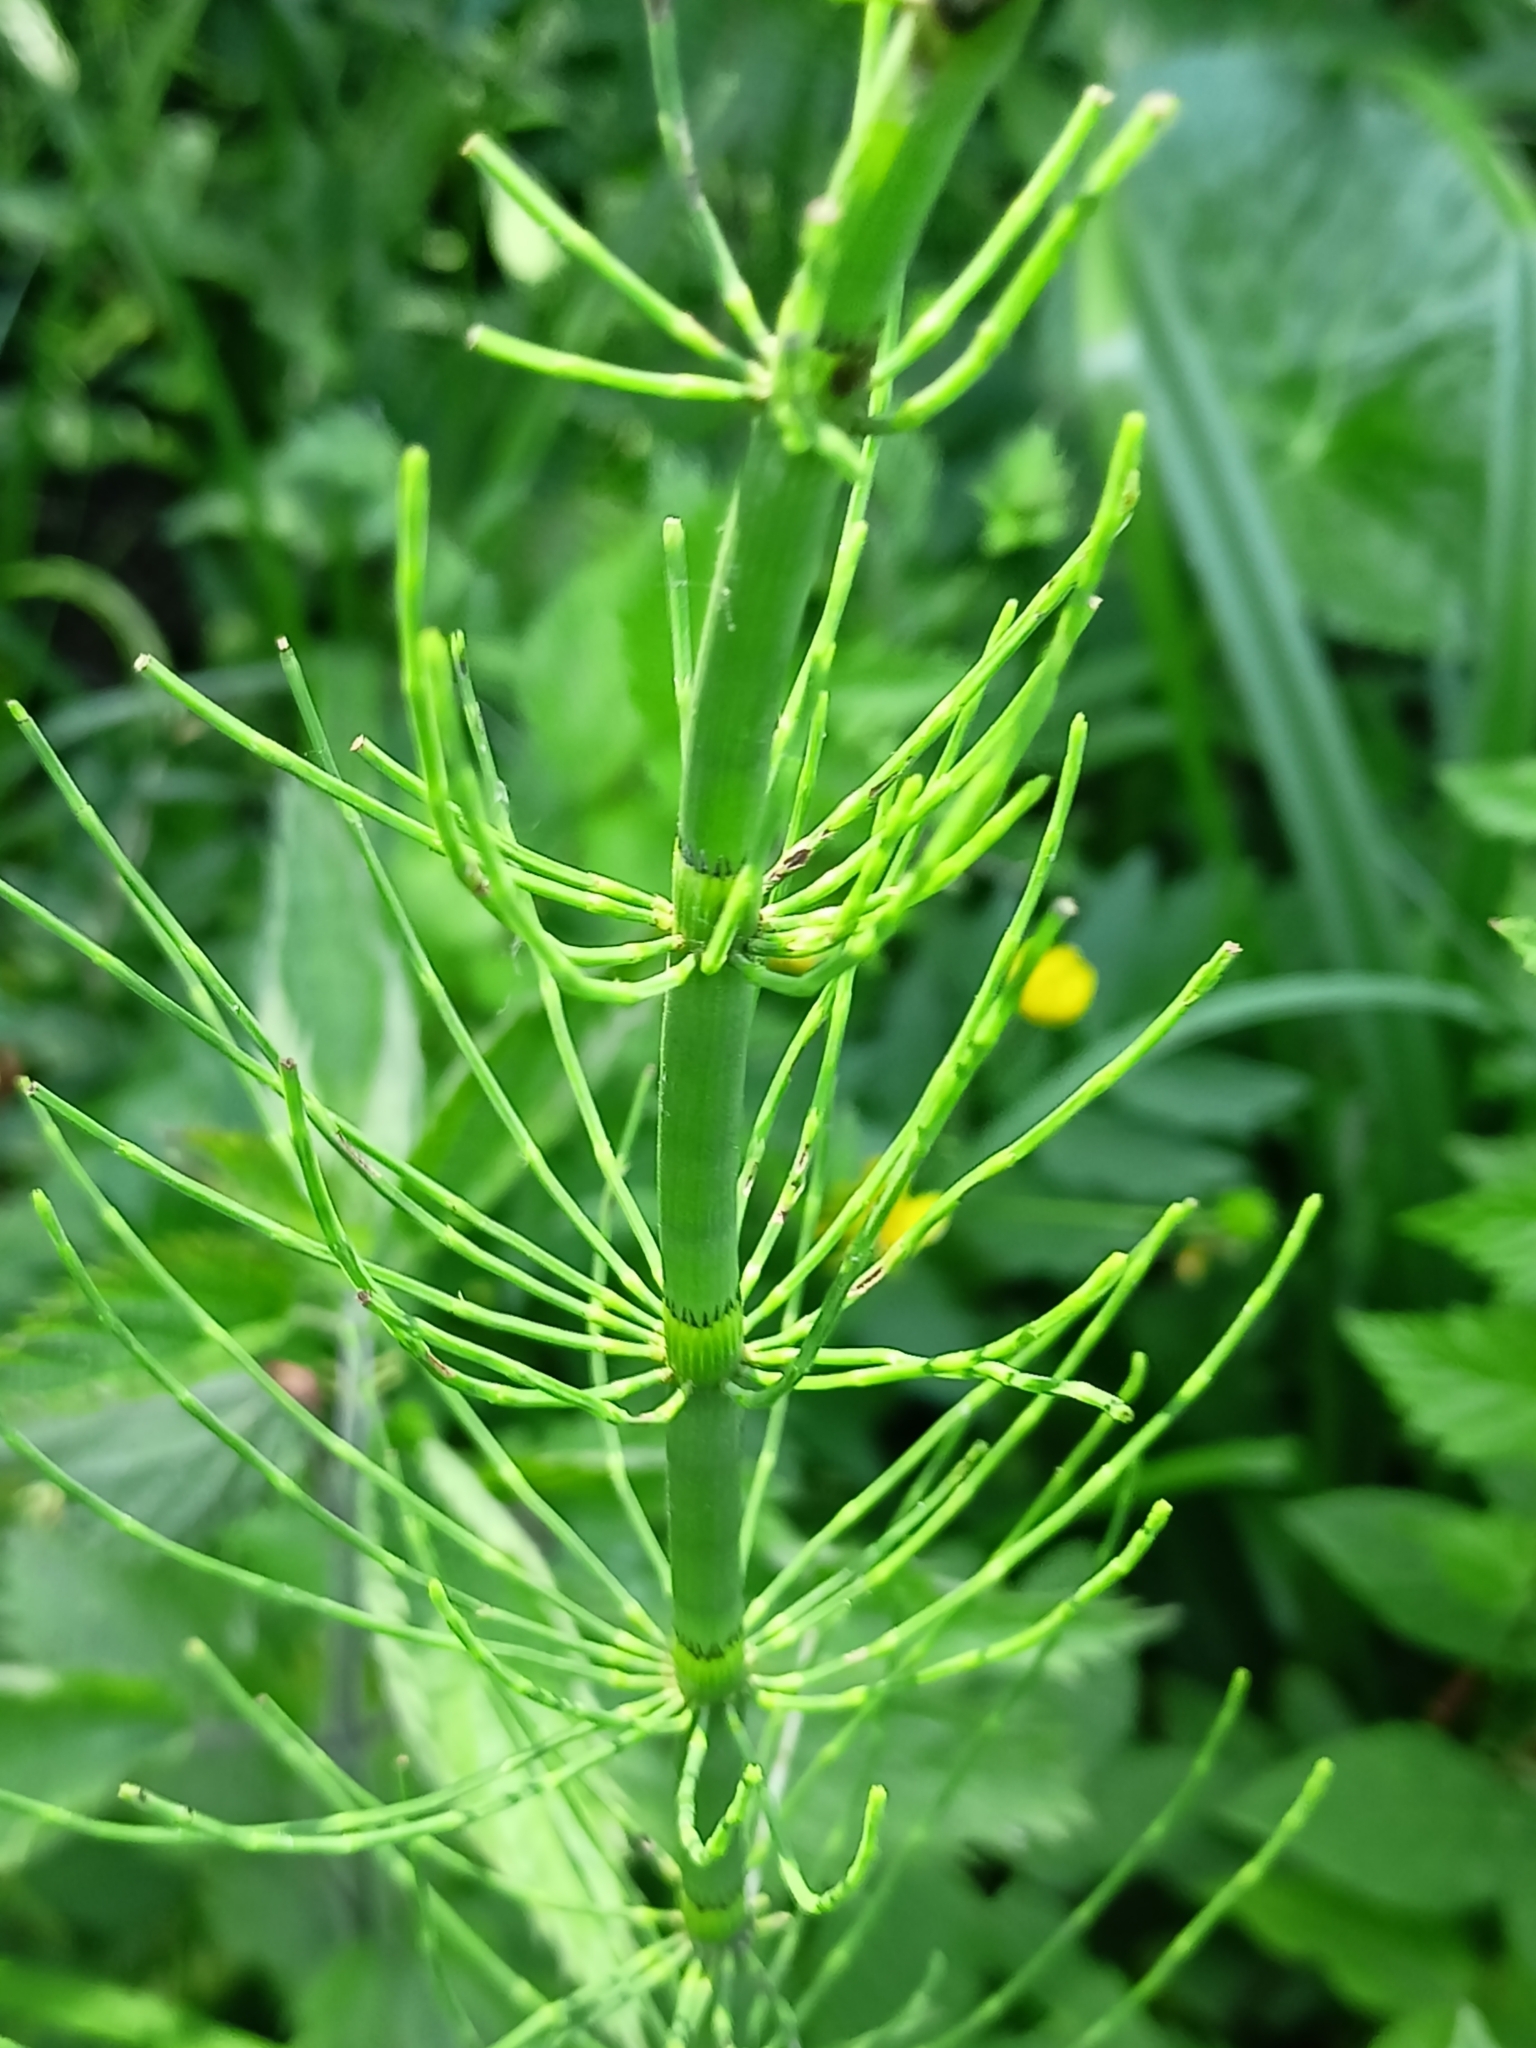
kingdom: Plantae
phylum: Tracheophyta
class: Polypodiopsida
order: Equisetales
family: Equisetaceae
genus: Equisetum
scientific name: Equisetum fluviatile
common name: Water horsetail
